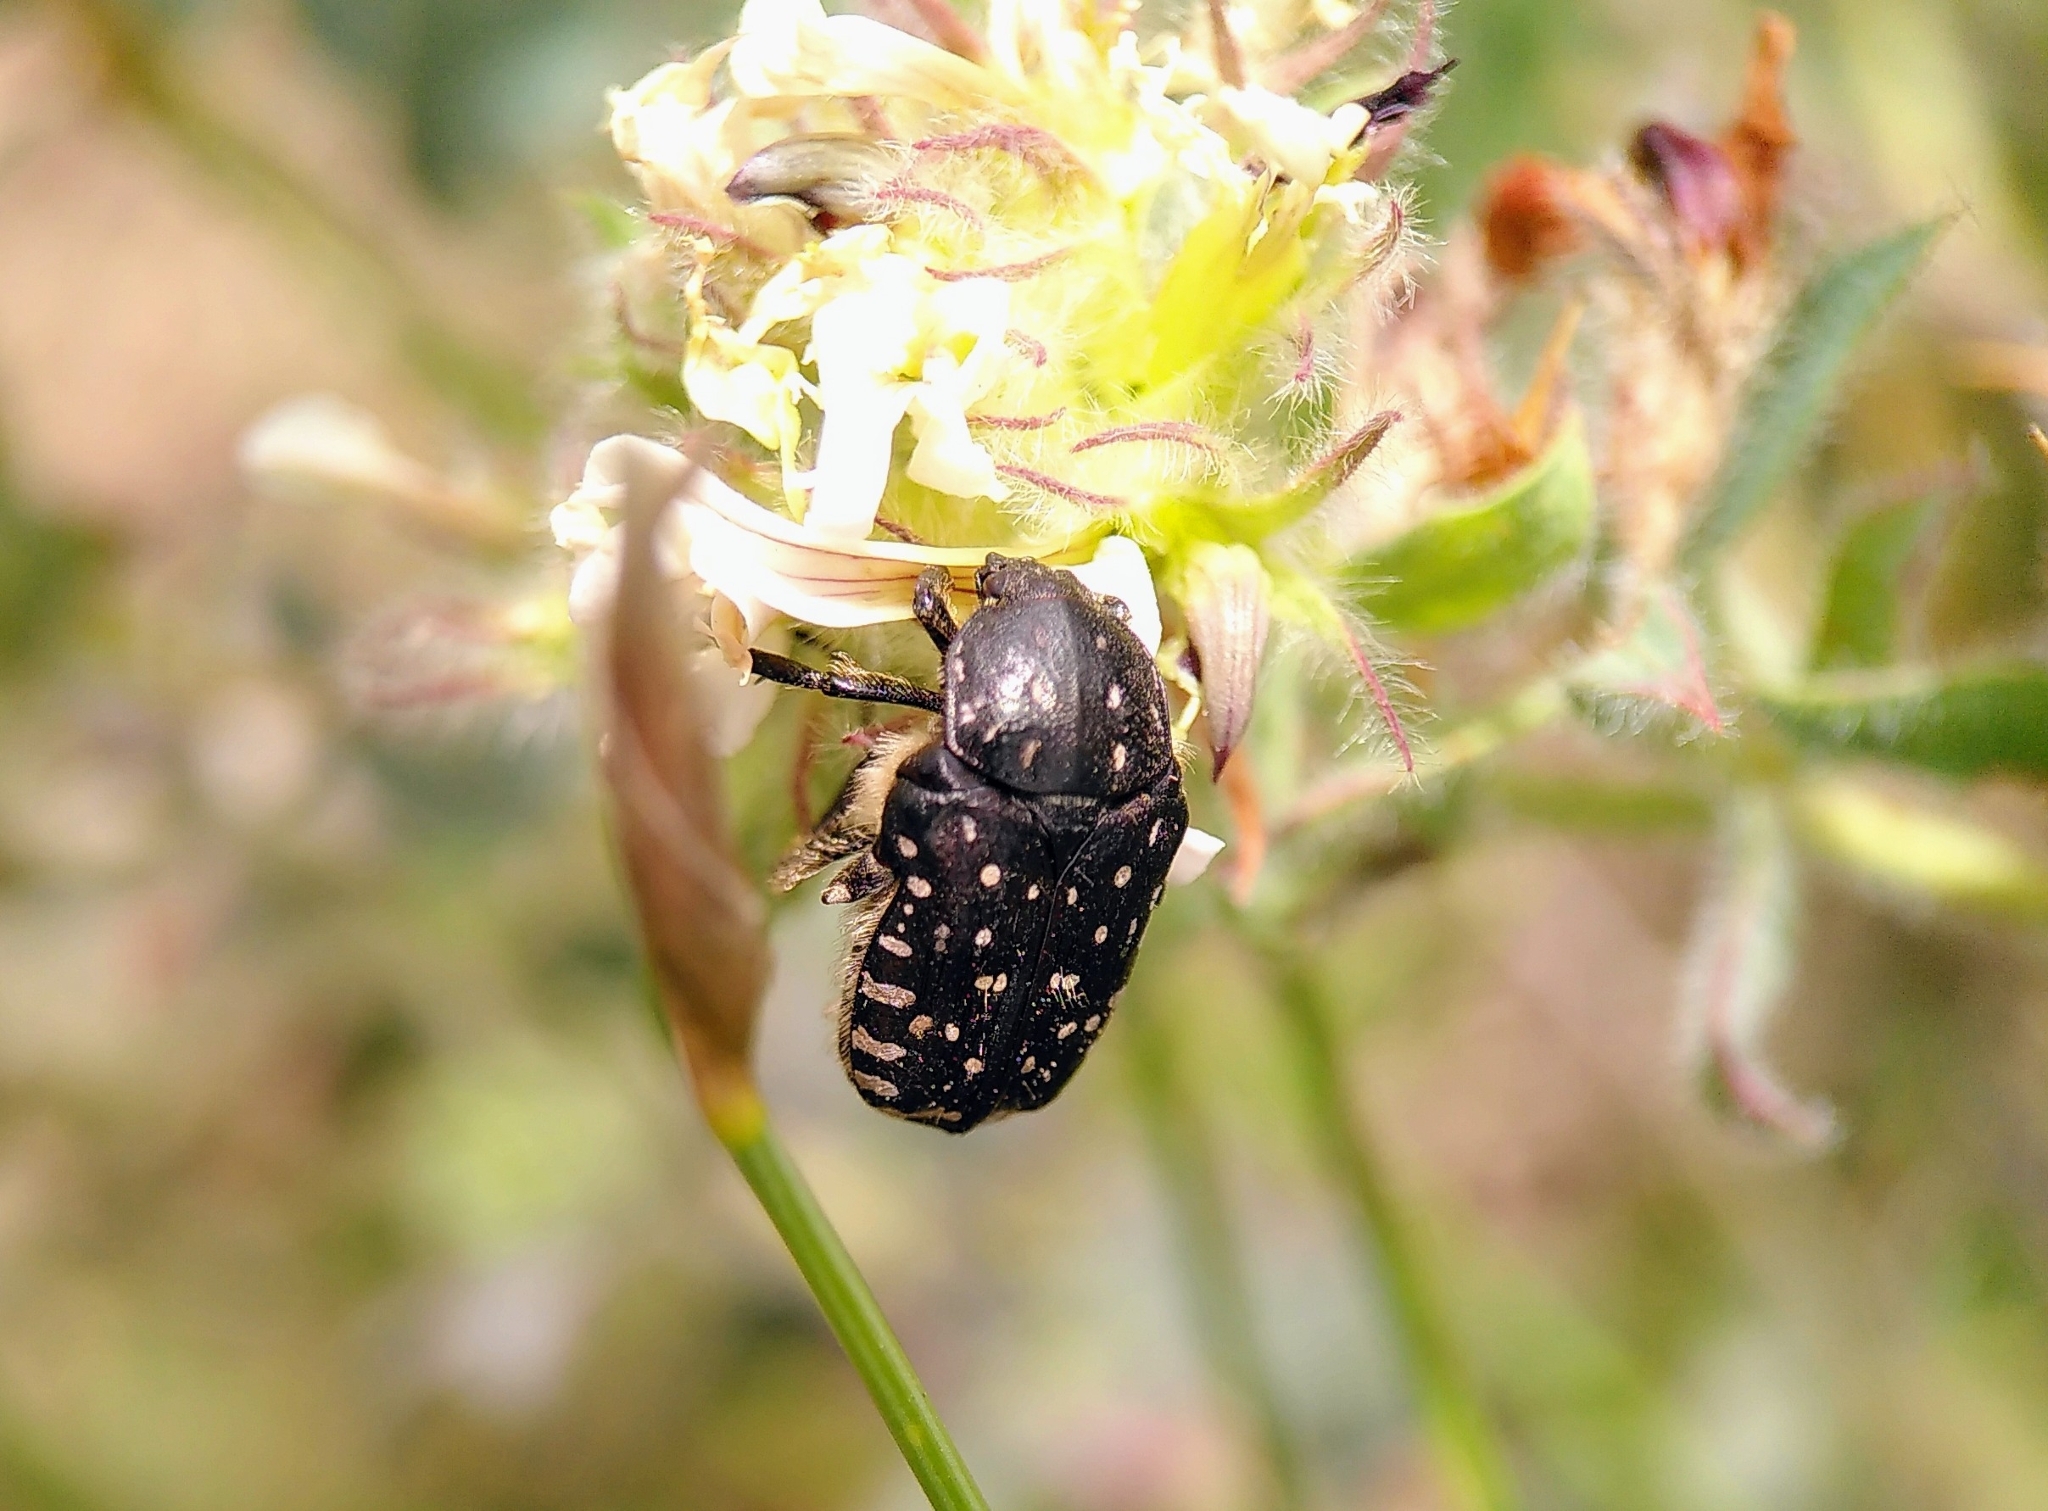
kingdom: Animalia
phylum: Arthropoda
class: Insecta
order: Coleoptera
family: Scarabaeidae
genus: Oxythyrea
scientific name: Oxythyrea funesta
